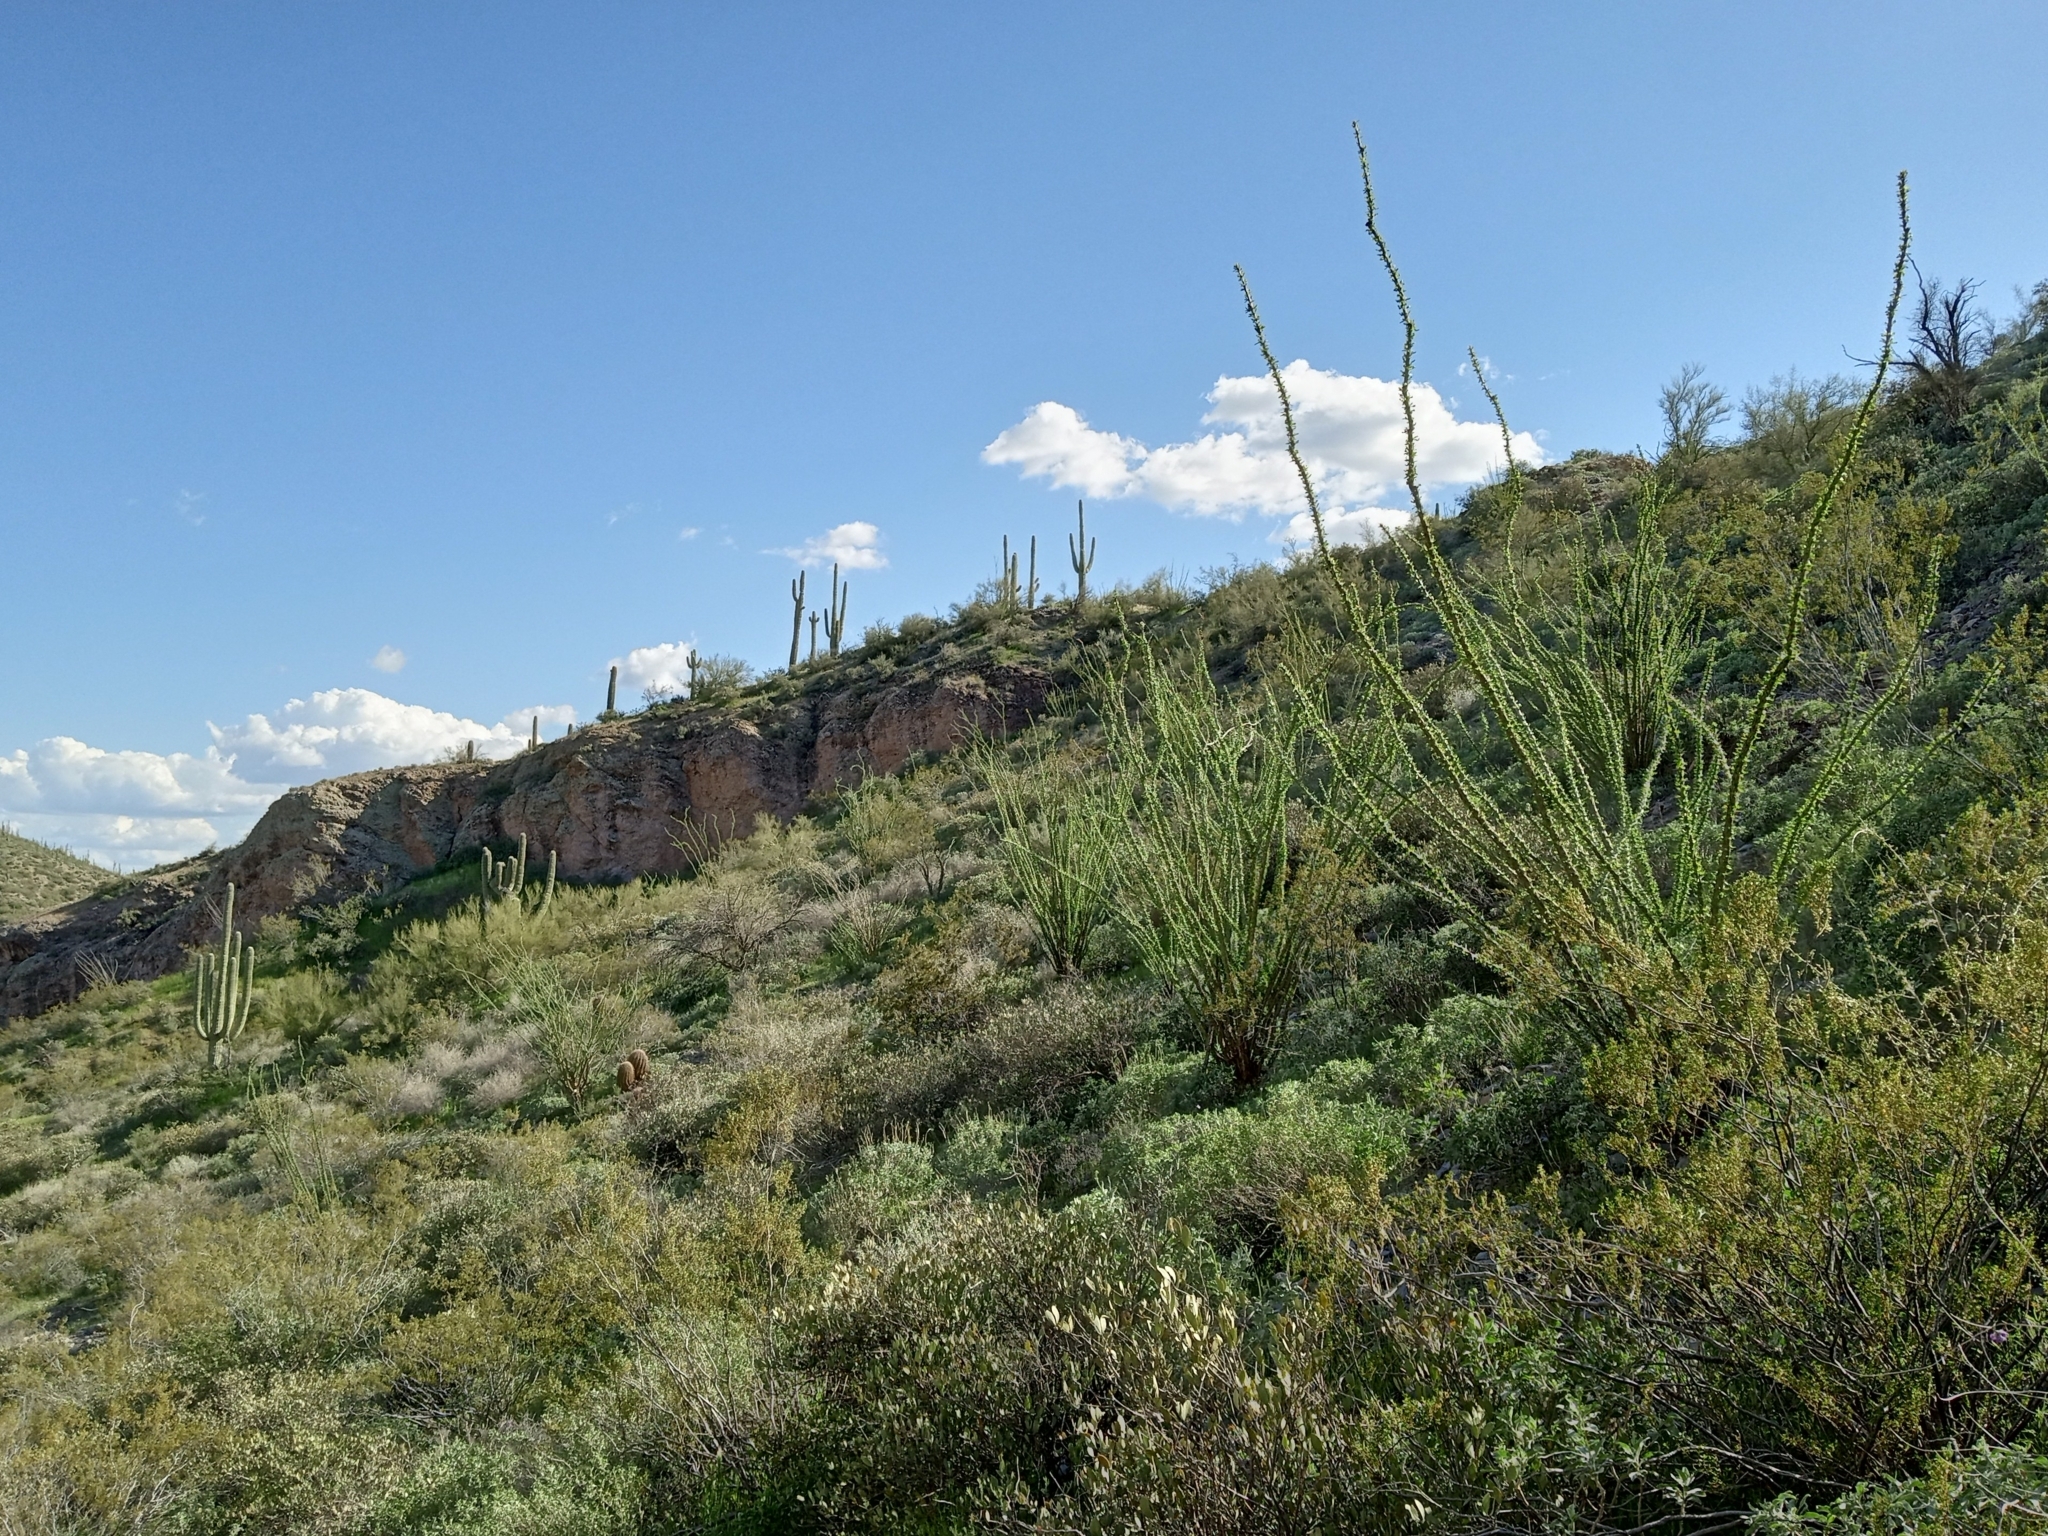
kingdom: Plantae
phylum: Tracheophyta
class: Magnoliopsida
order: Ericales
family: Fouquieriaceae
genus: Fouquieria
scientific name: Fouquieria splendens
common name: Vine-cactus
